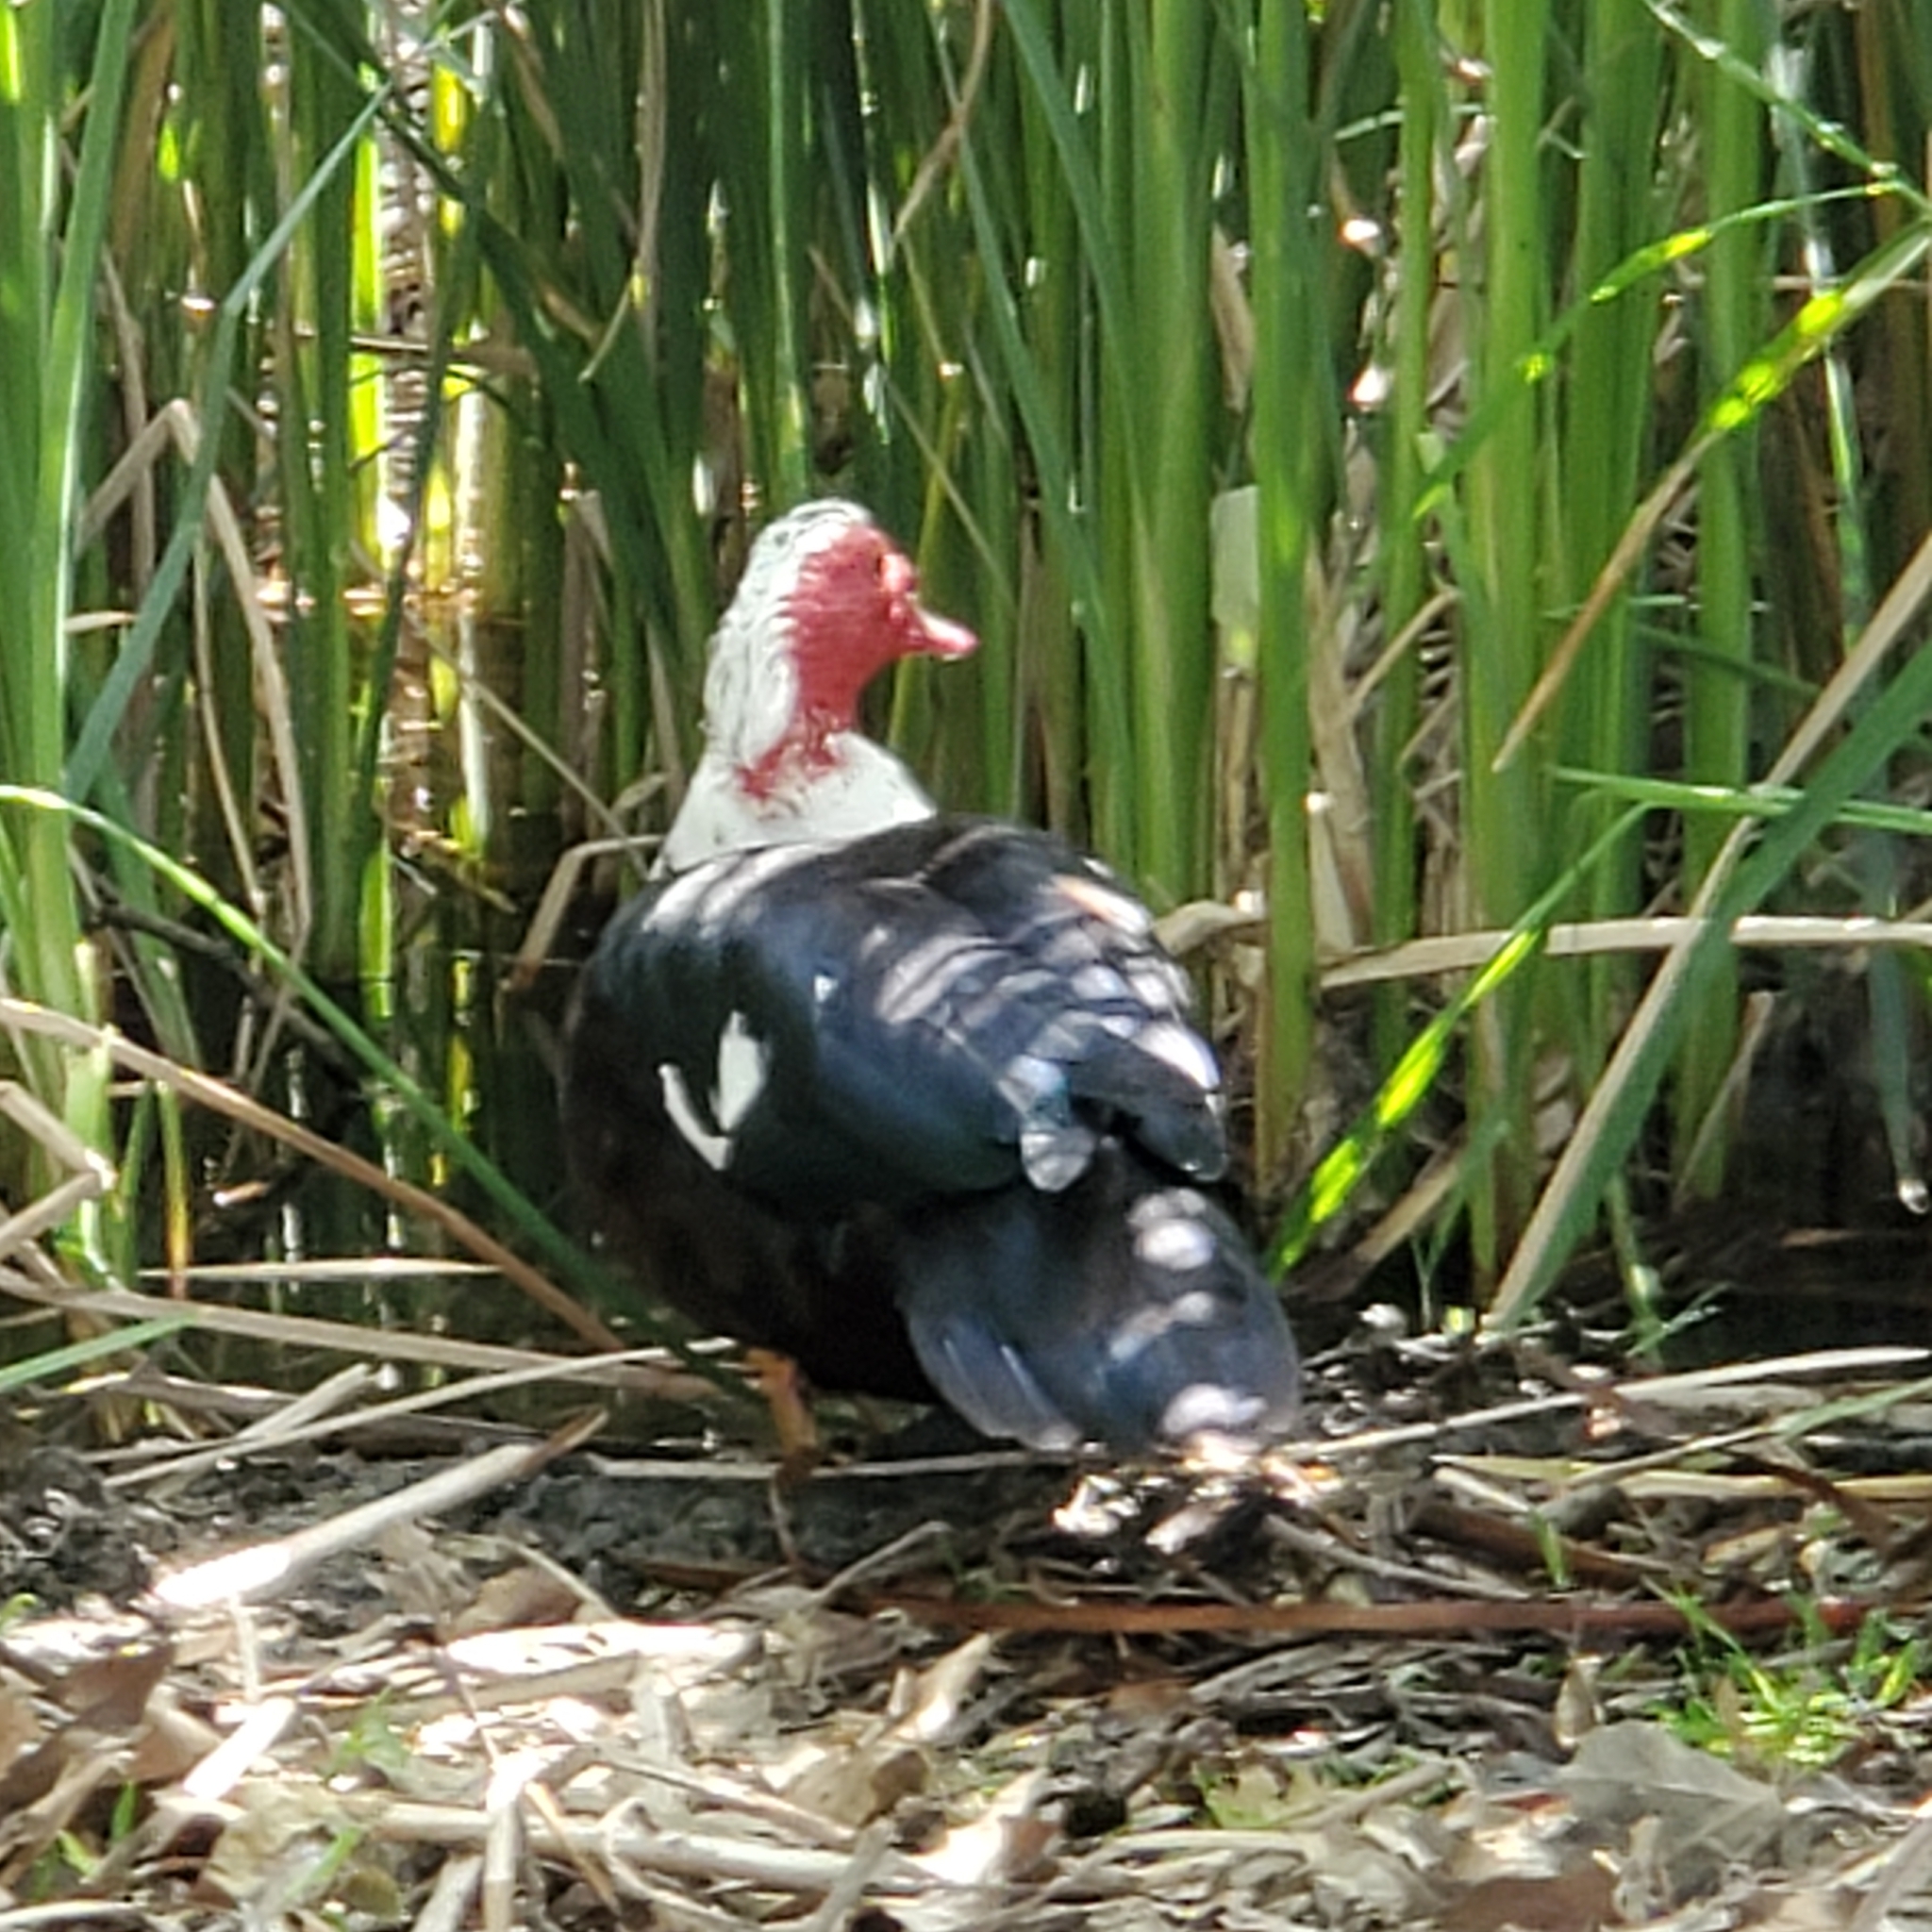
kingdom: Animalia
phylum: Chordata
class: Aves
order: Anseriformes
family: Anatidae
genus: Cairina
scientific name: Cairina moschata
